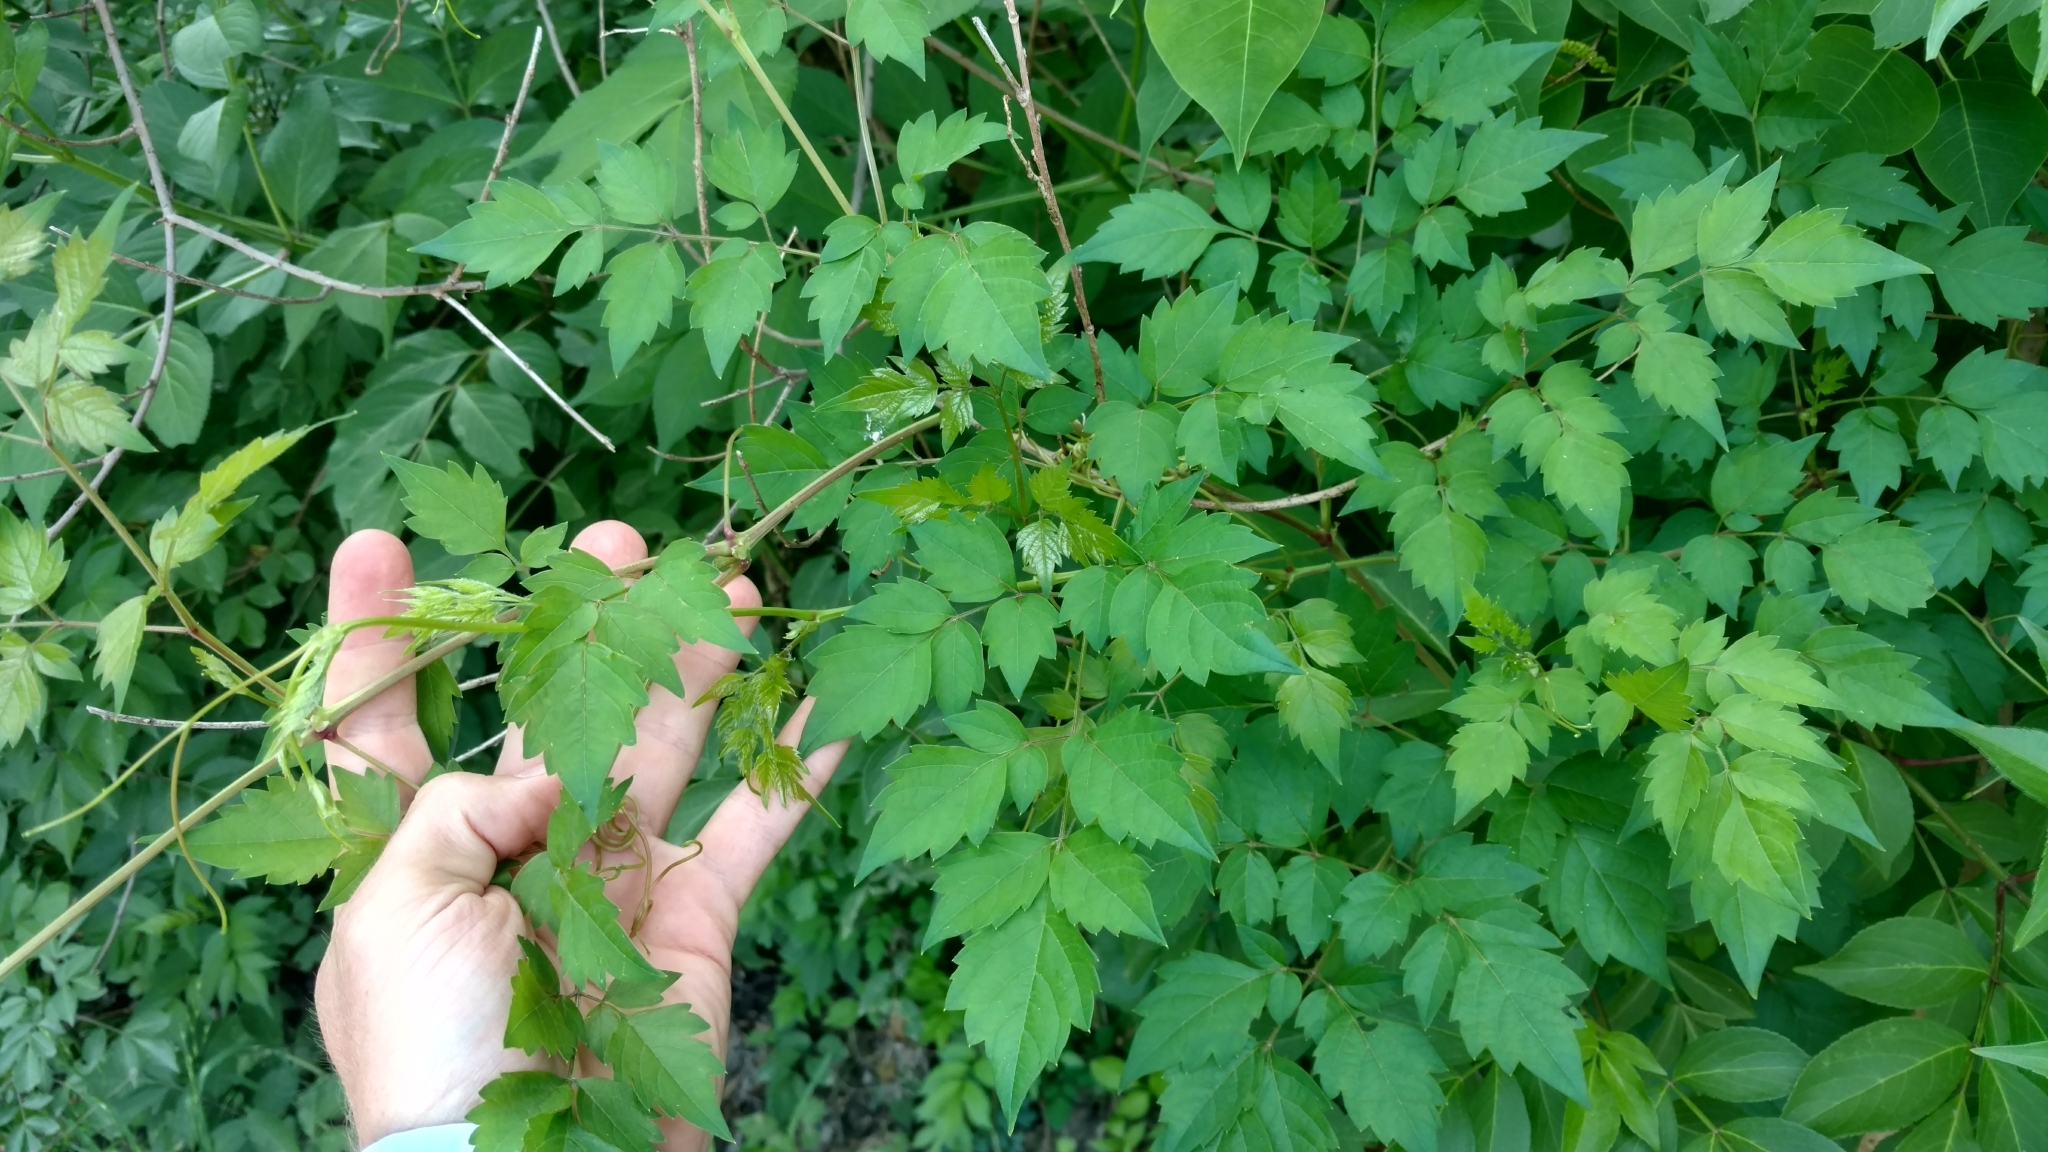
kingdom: Plantae
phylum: Tracheophyta
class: Magnoliopsida
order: Lamiales
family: Bignoniaceae
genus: Campsis
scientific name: Campsis radicans
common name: Trumpet-creeper
